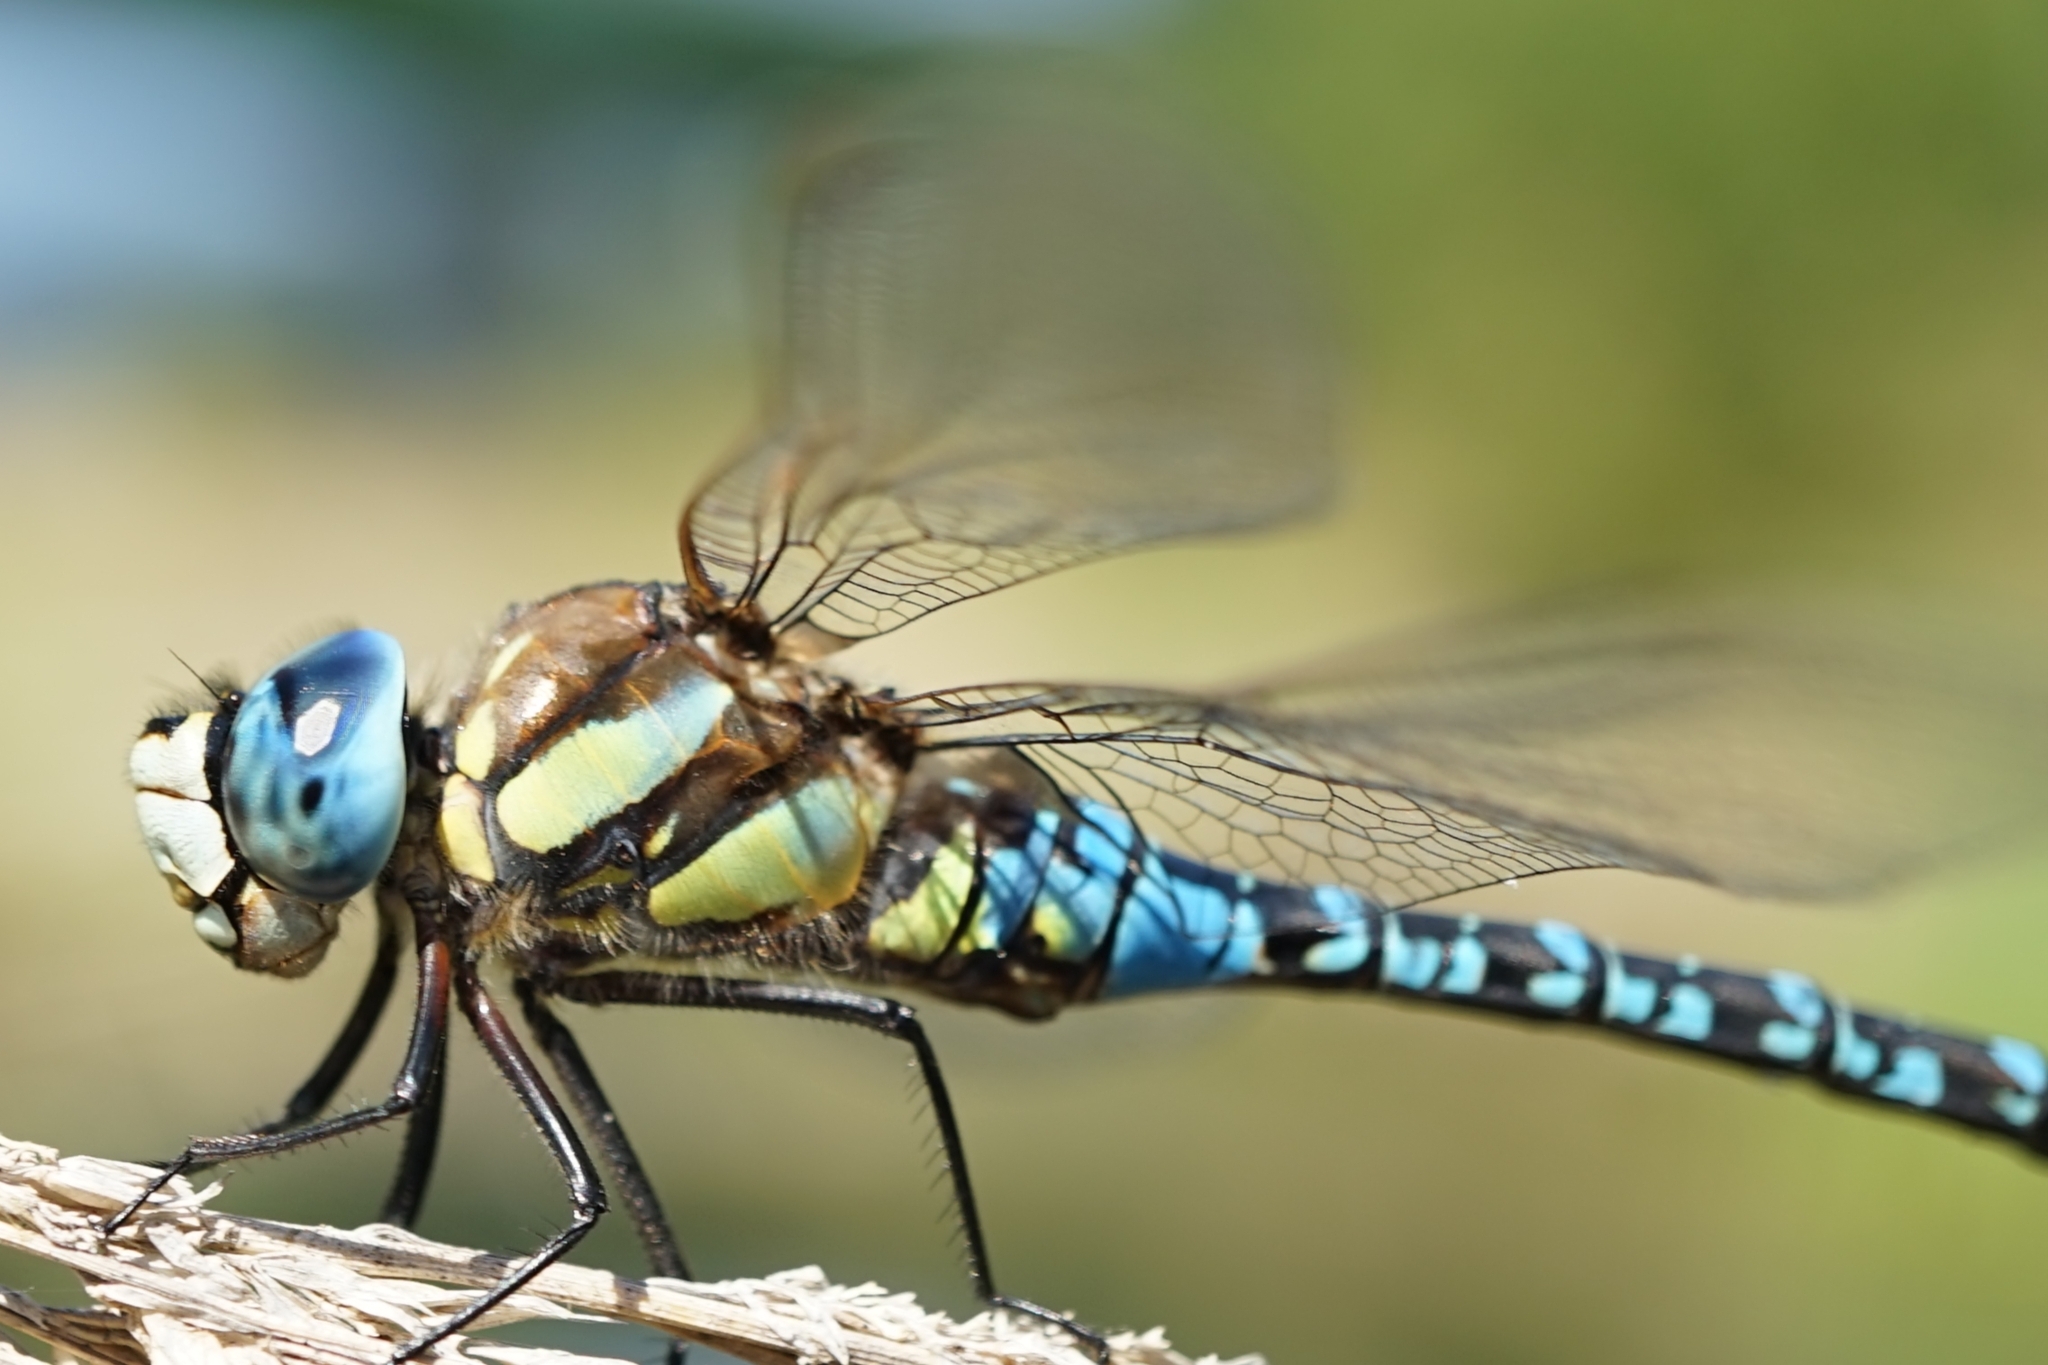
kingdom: Animalia
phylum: Arthropoda
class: Insecta
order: Odonata
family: Aeshnidae
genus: Aeshna
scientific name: Aeshna soneharai
